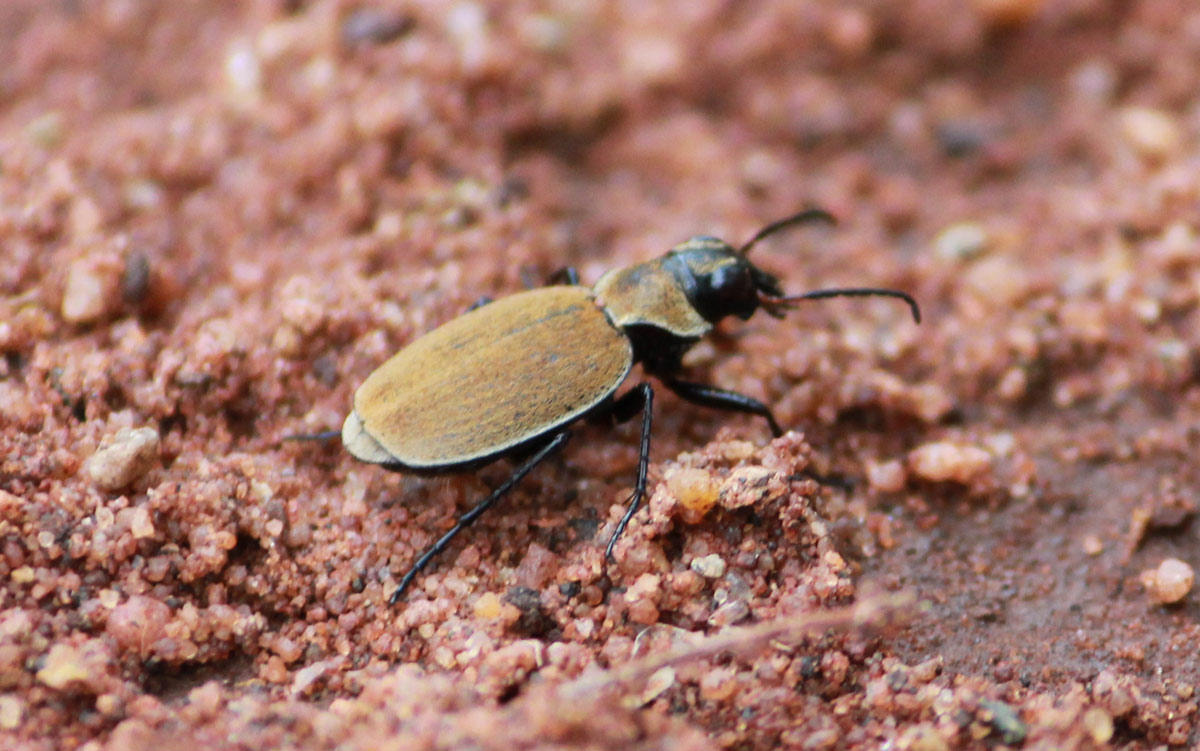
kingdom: Animalia
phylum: Arthropoda
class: Insecta
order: Coleoptera
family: Carabidae
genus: Graphipterus
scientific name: Graphipterus limbatus
